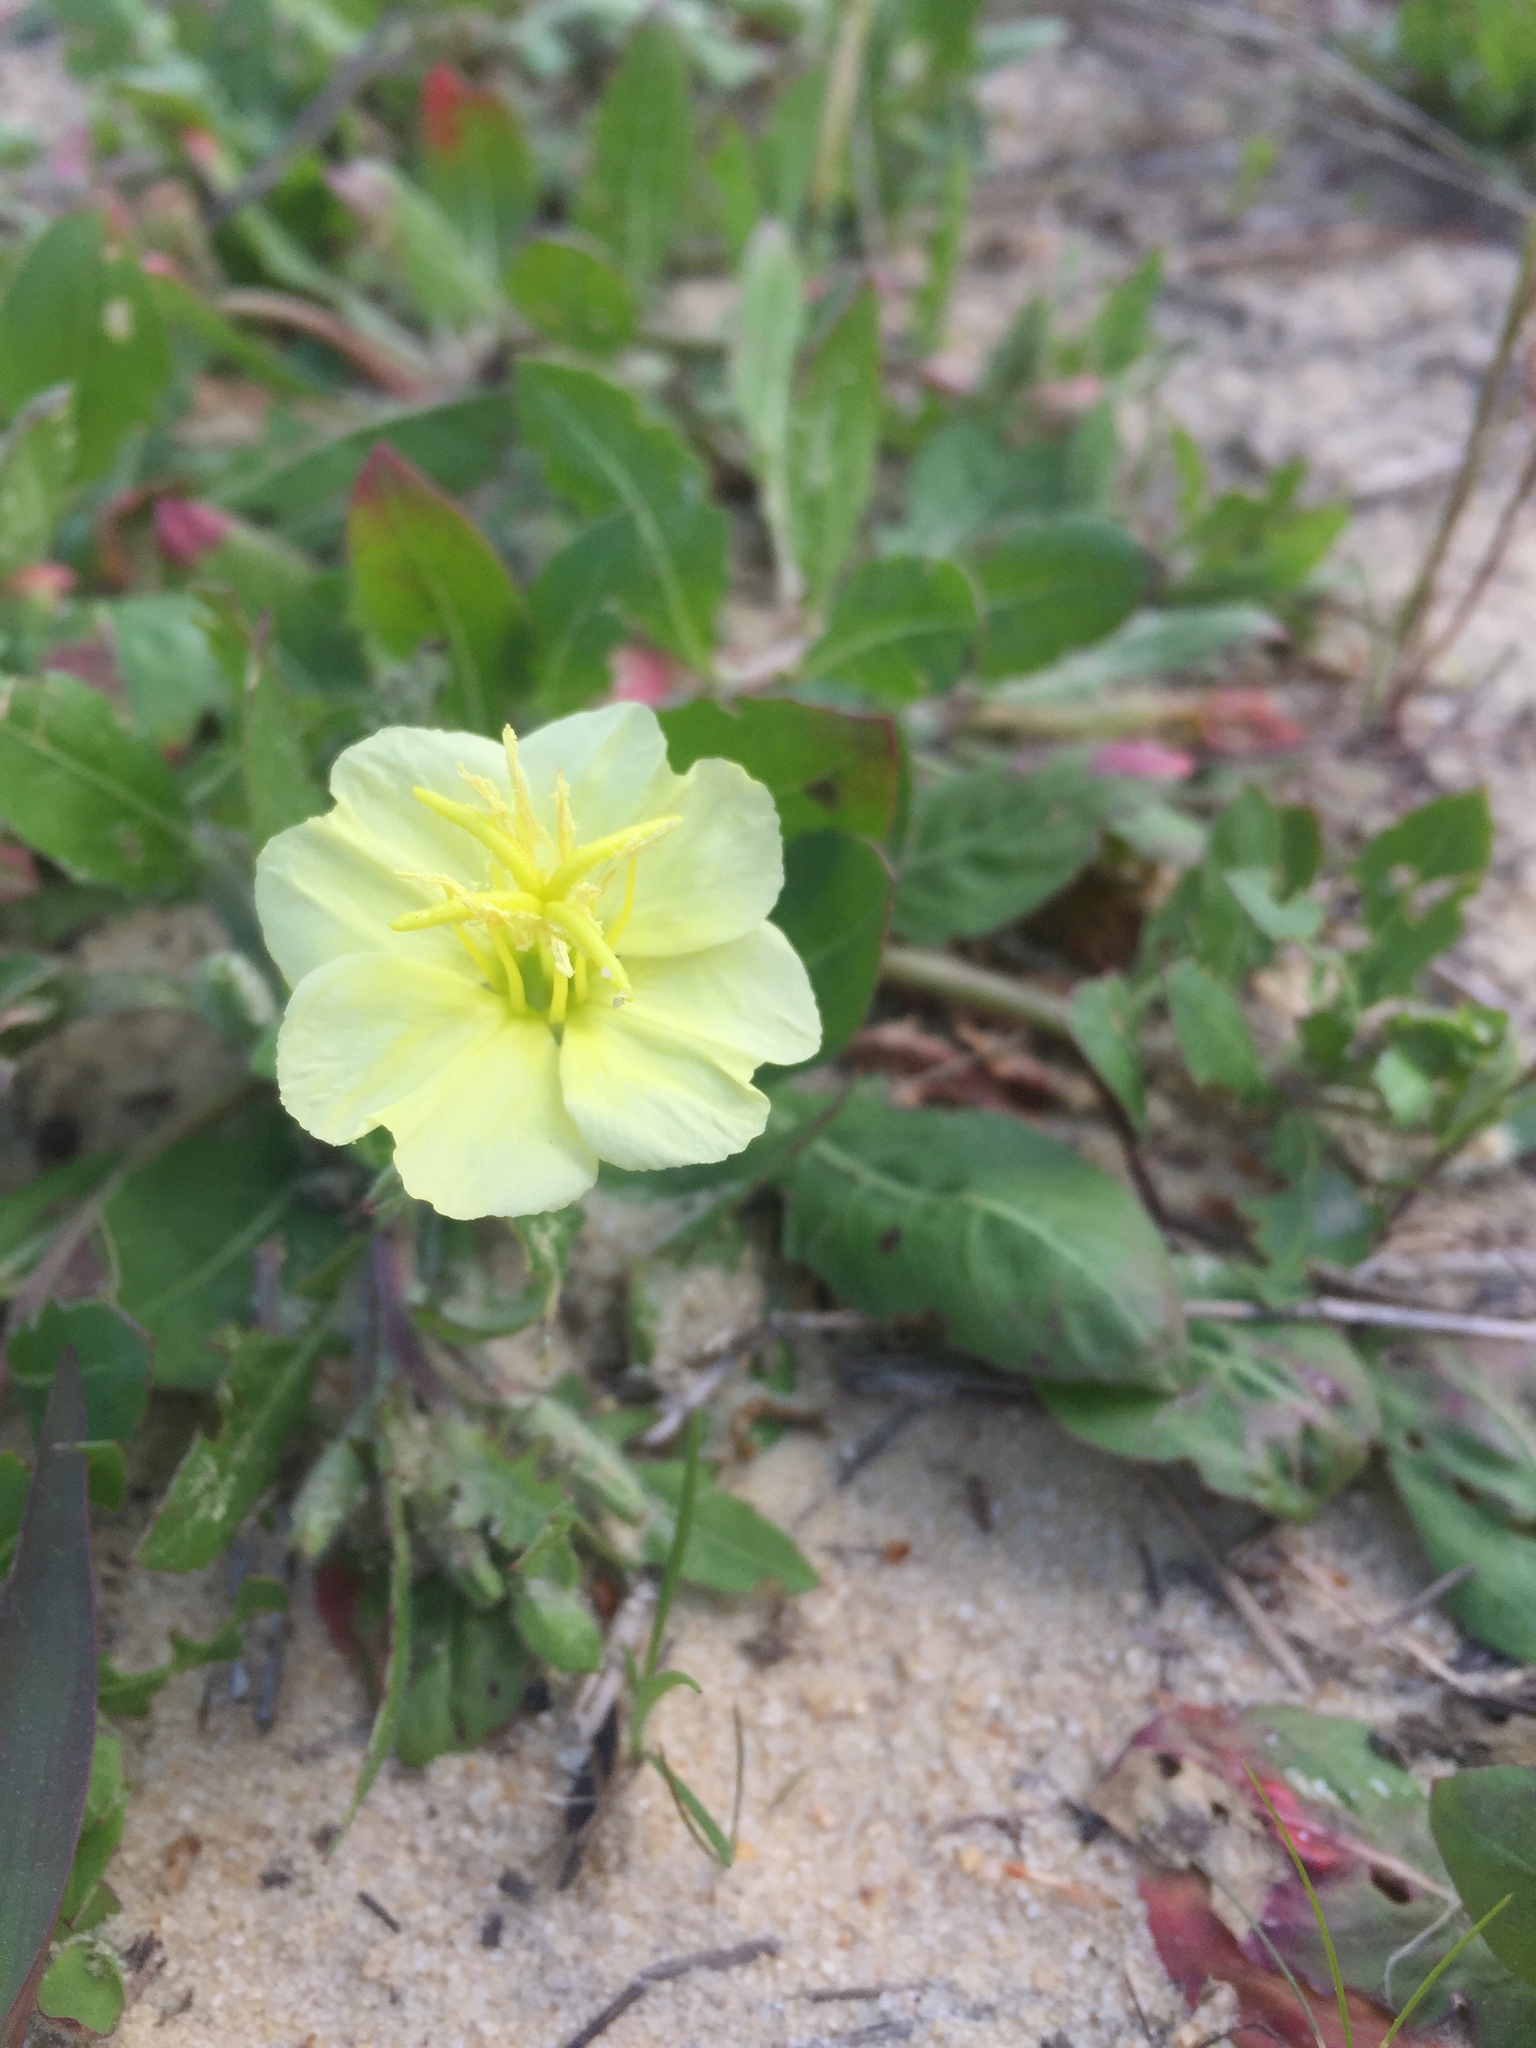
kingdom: Plantae
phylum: Tracheophyta
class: Magnoliopsida
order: Myrtales
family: Onagraceae
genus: Oenothera
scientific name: Oenothera laciniata
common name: Cut-leaved evening-primrose
